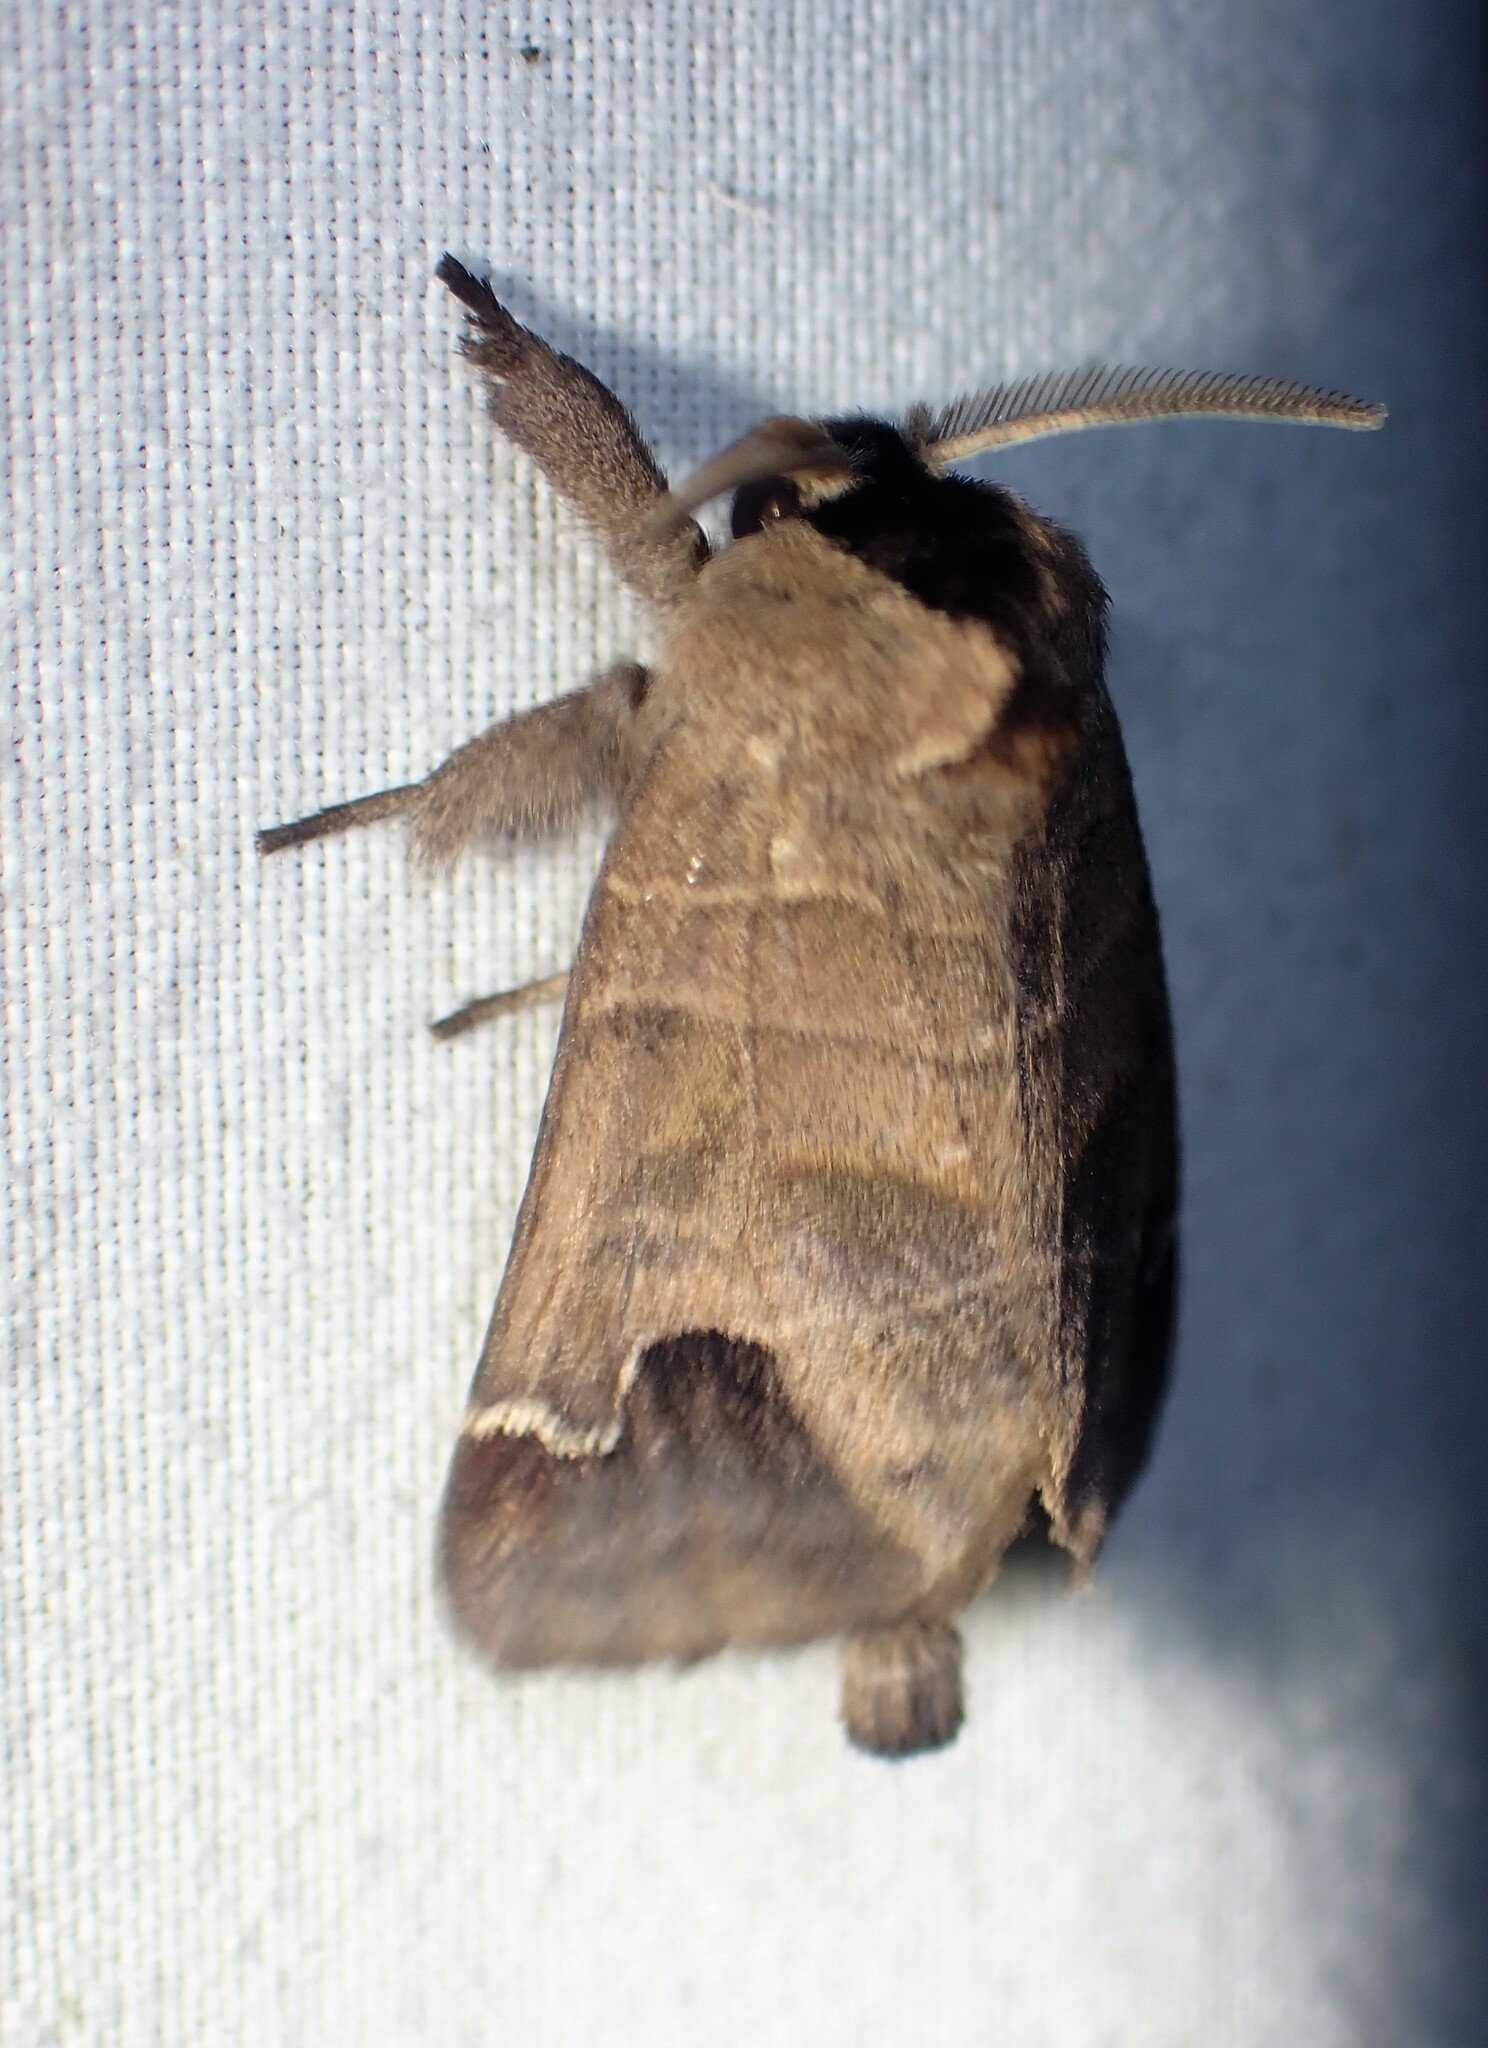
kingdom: Animalia
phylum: Arthropoda
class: Insecta
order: Lepidoptera
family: Notodontidae
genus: Clostera
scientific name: Clostera albosigma
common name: Sigmoid prominent
